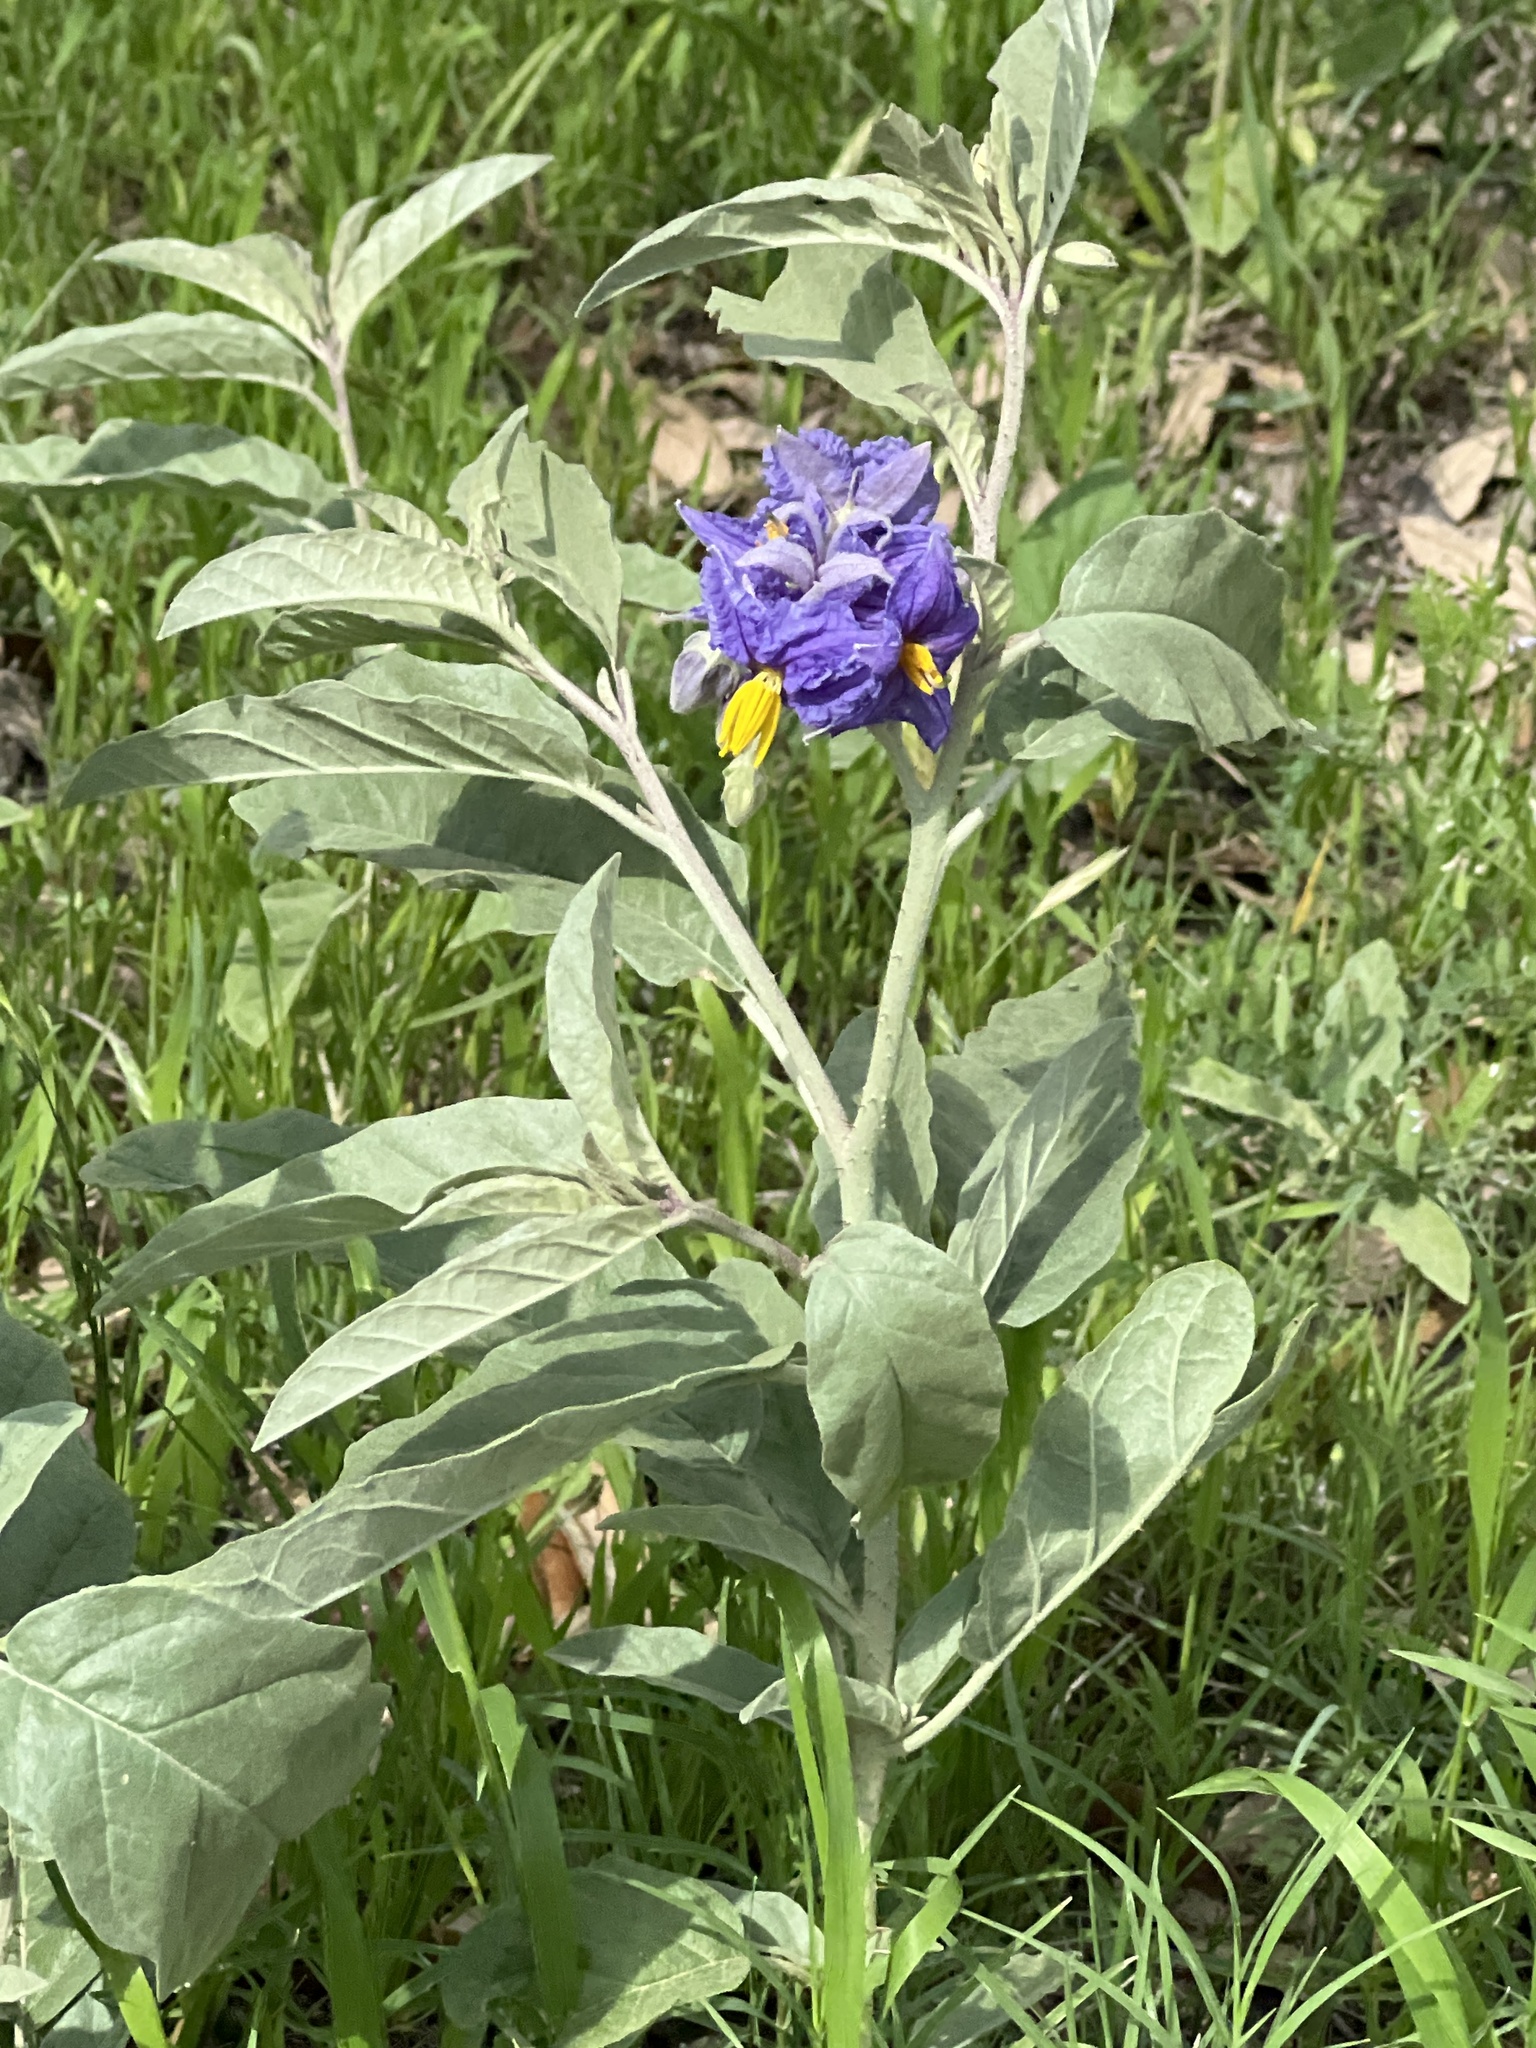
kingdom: Plantae
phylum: Tracheophyta
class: Magnoliopsida
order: Solanales
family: Solanaceae
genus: Solanum
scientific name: Solanum elaeagnifolium
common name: Silverleaf nightshade
